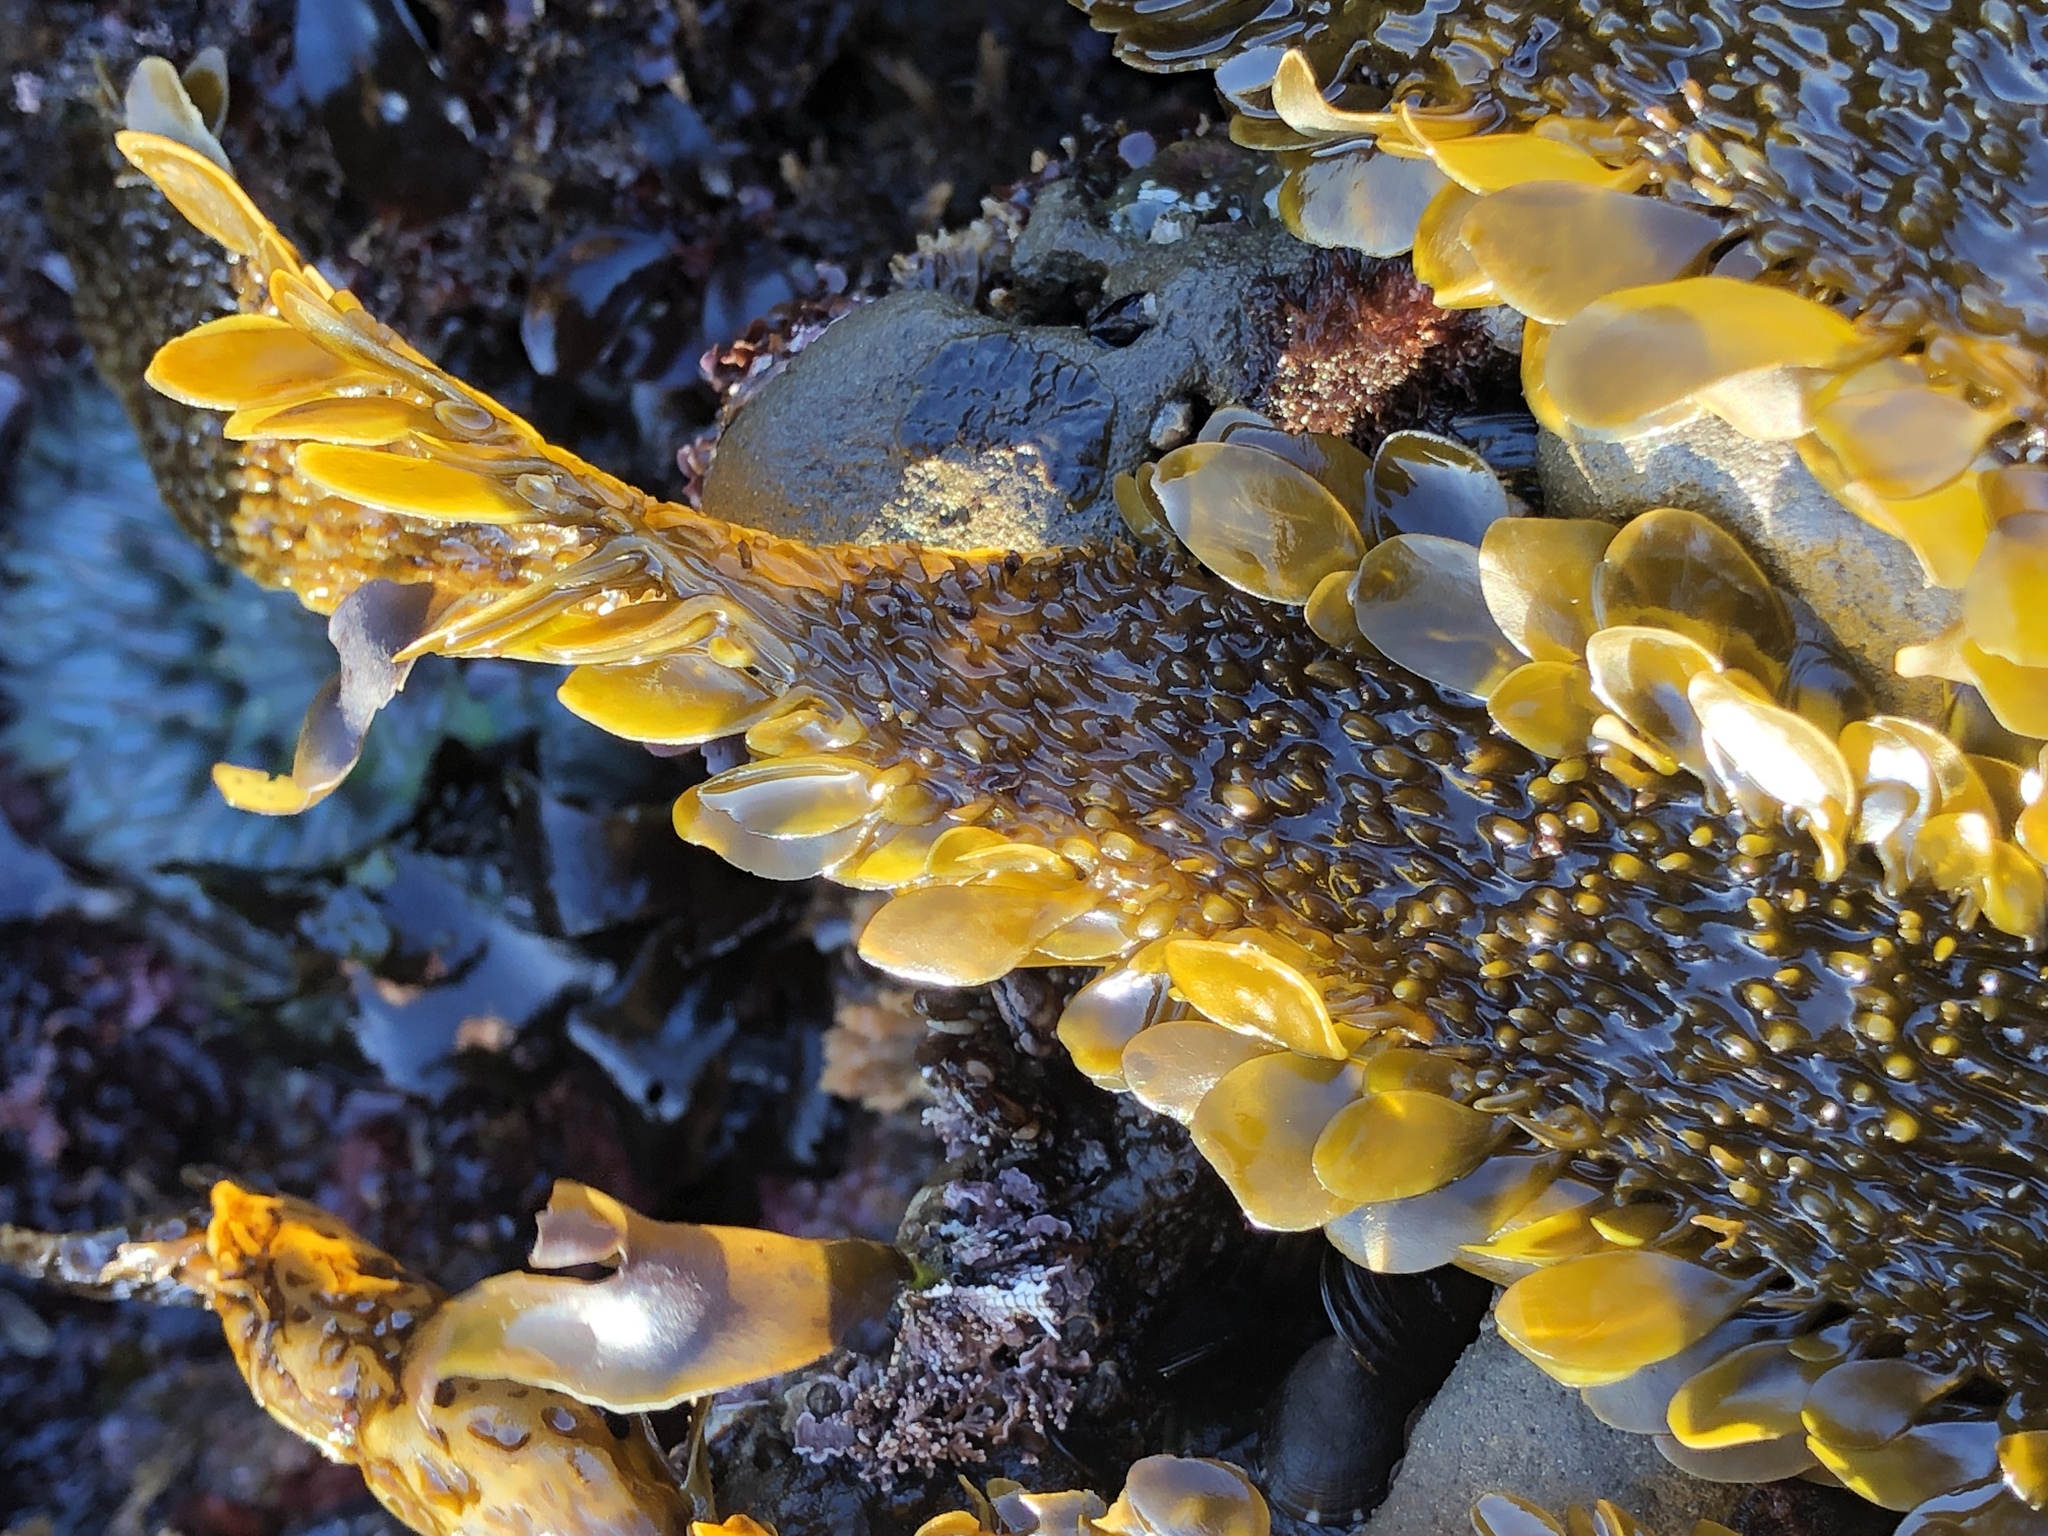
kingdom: Chromista
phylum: Ochrophyta
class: Phaeophyceae
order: Laminariales
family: Lessoniaceae
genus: Egregia
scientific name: Egregia menziesii
